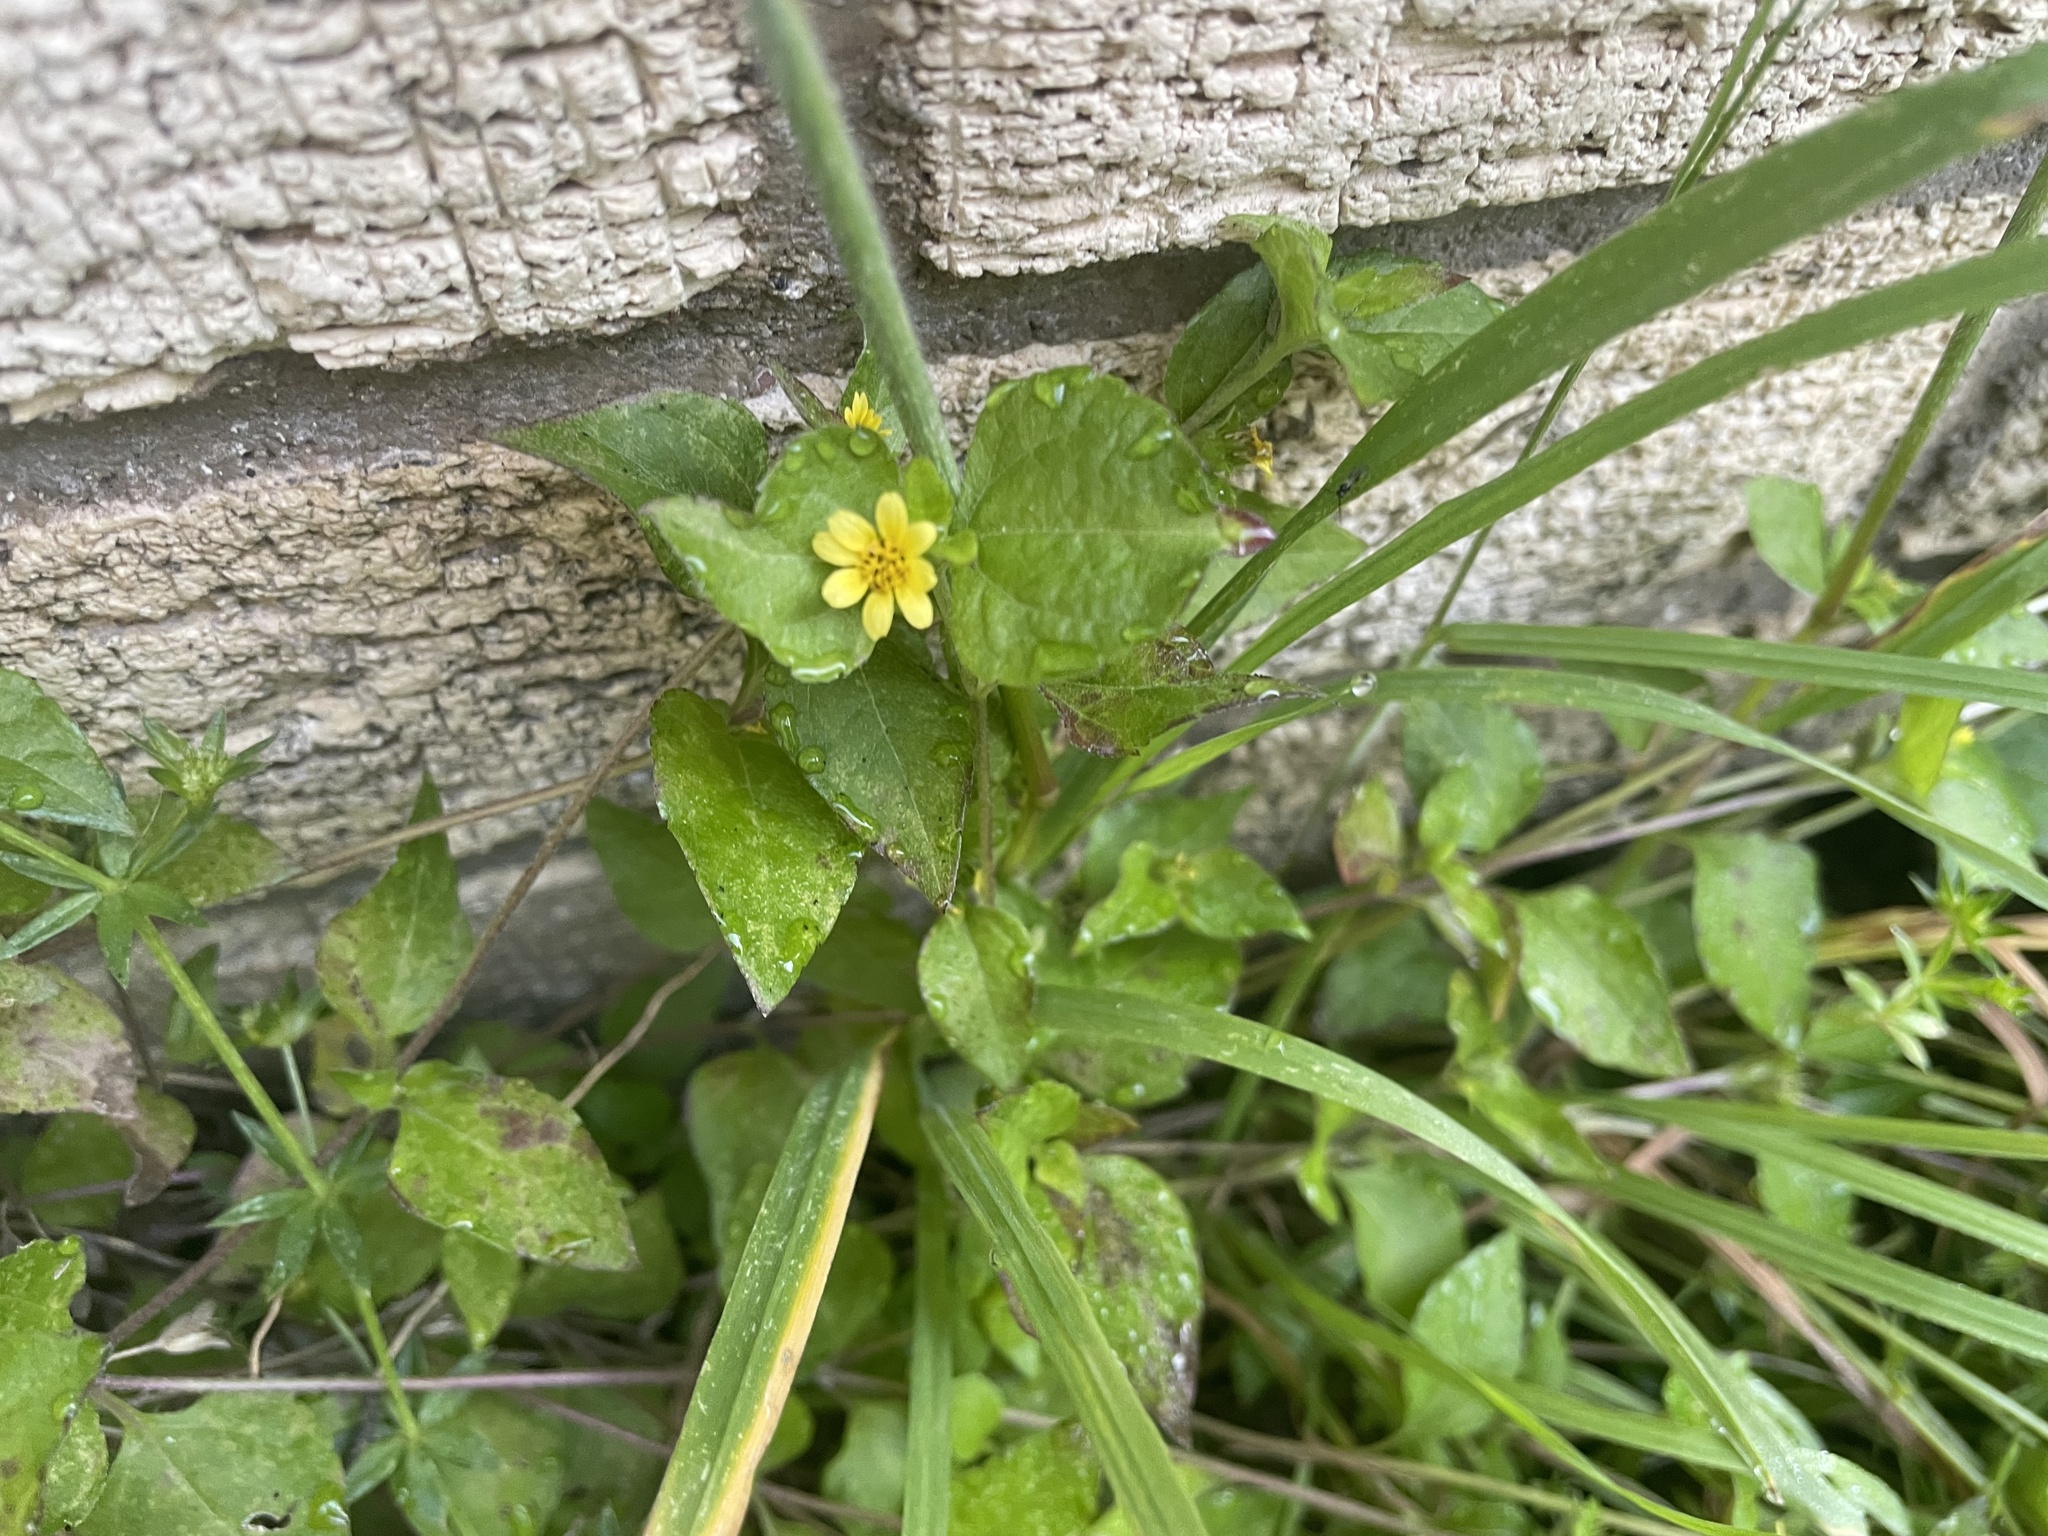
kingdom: Plantae
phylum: Tracheophyta
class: Magnoliopsida
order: Asterales
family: Asteraceae
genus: Calyptocarpus
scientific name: Calyptocarpus vialis
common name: Straggler daisy
